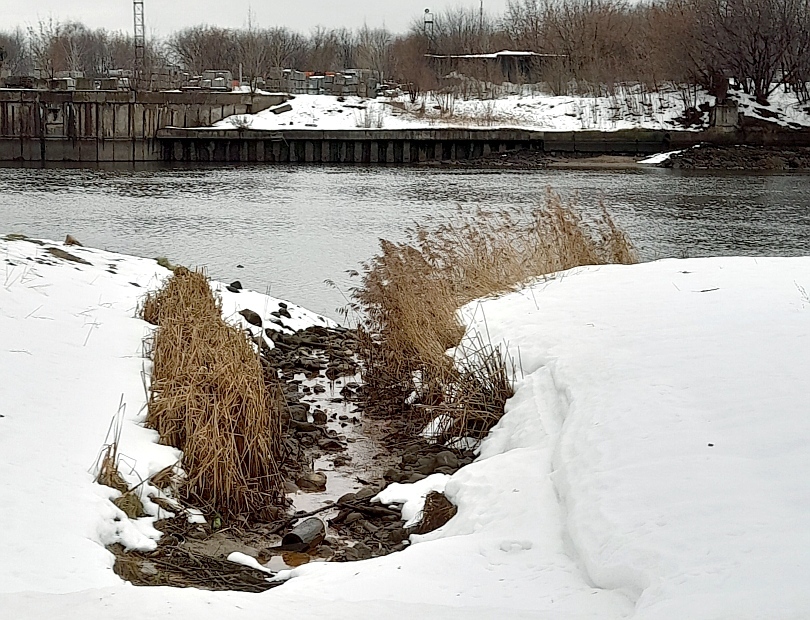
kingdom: Plantae
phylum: Tracheophyta
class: Liliopsida
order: Poales
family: Poaceae
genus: Phragmites
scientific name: Phragmites australis
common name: Common reed
